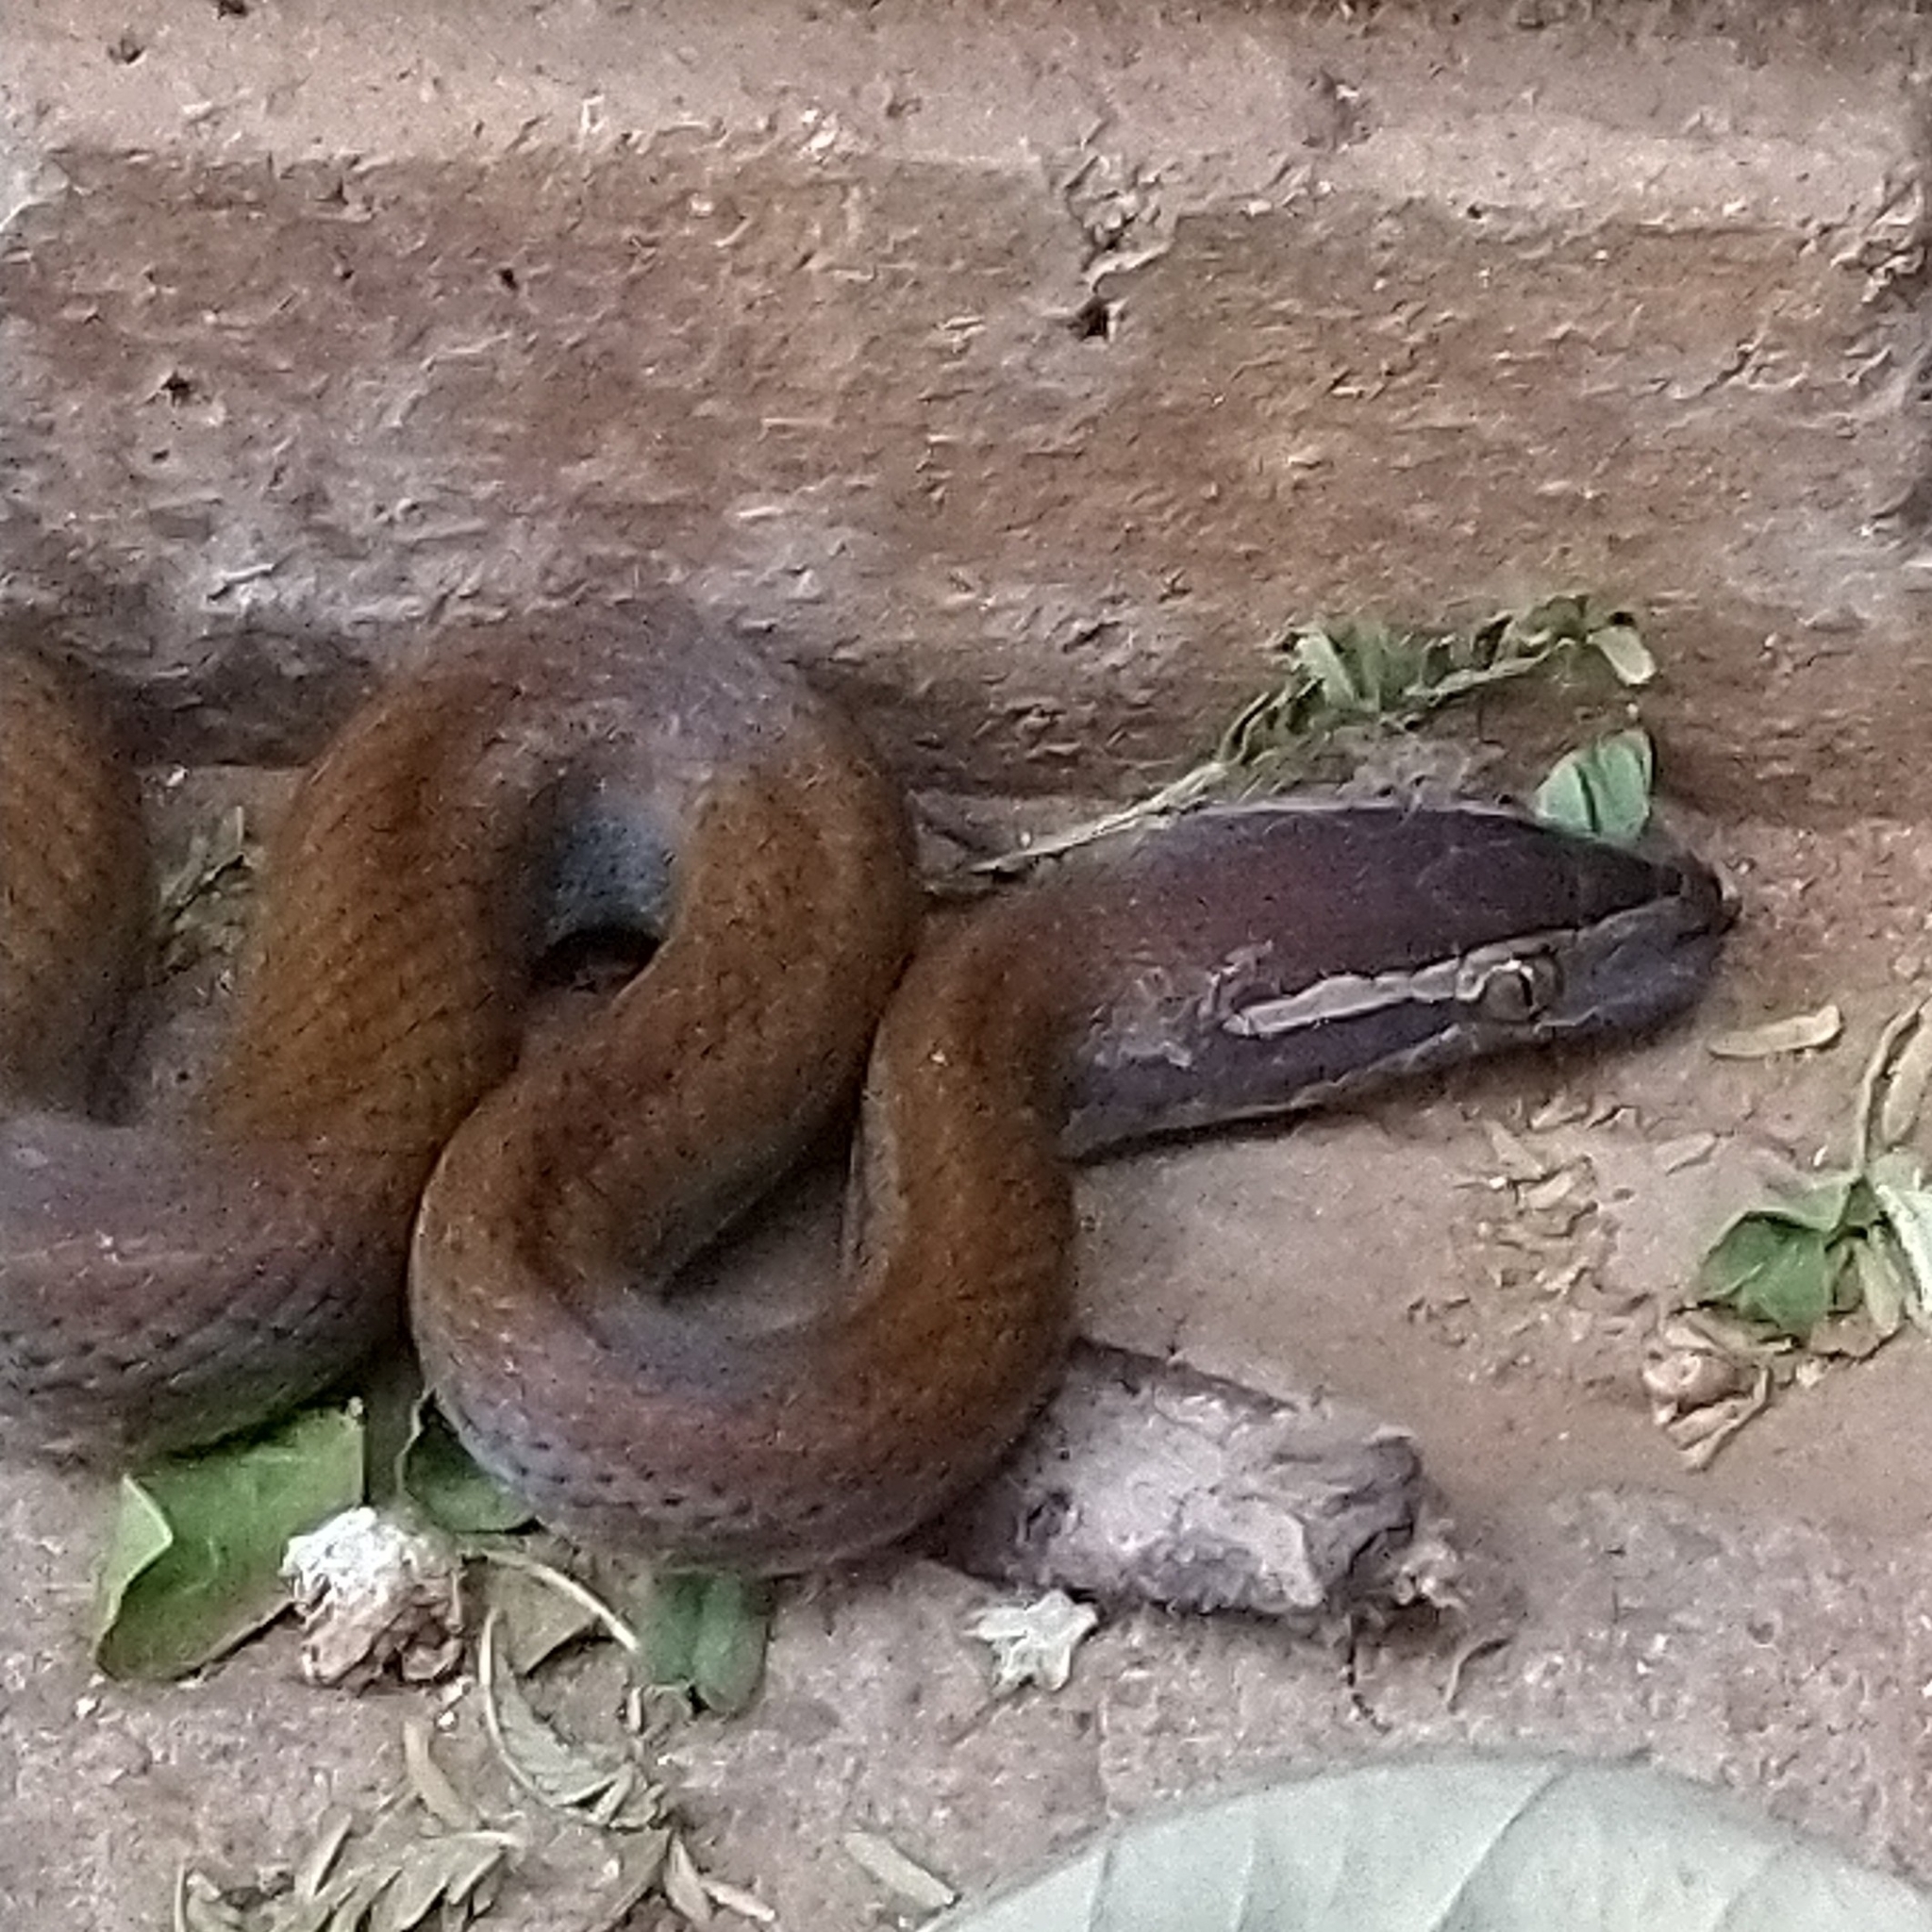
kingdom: Animalia
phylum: Chordata
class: Squamata
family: Lamprophiidae
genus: Boaedon
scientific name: Boaedon capensis
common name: Brown house snake
